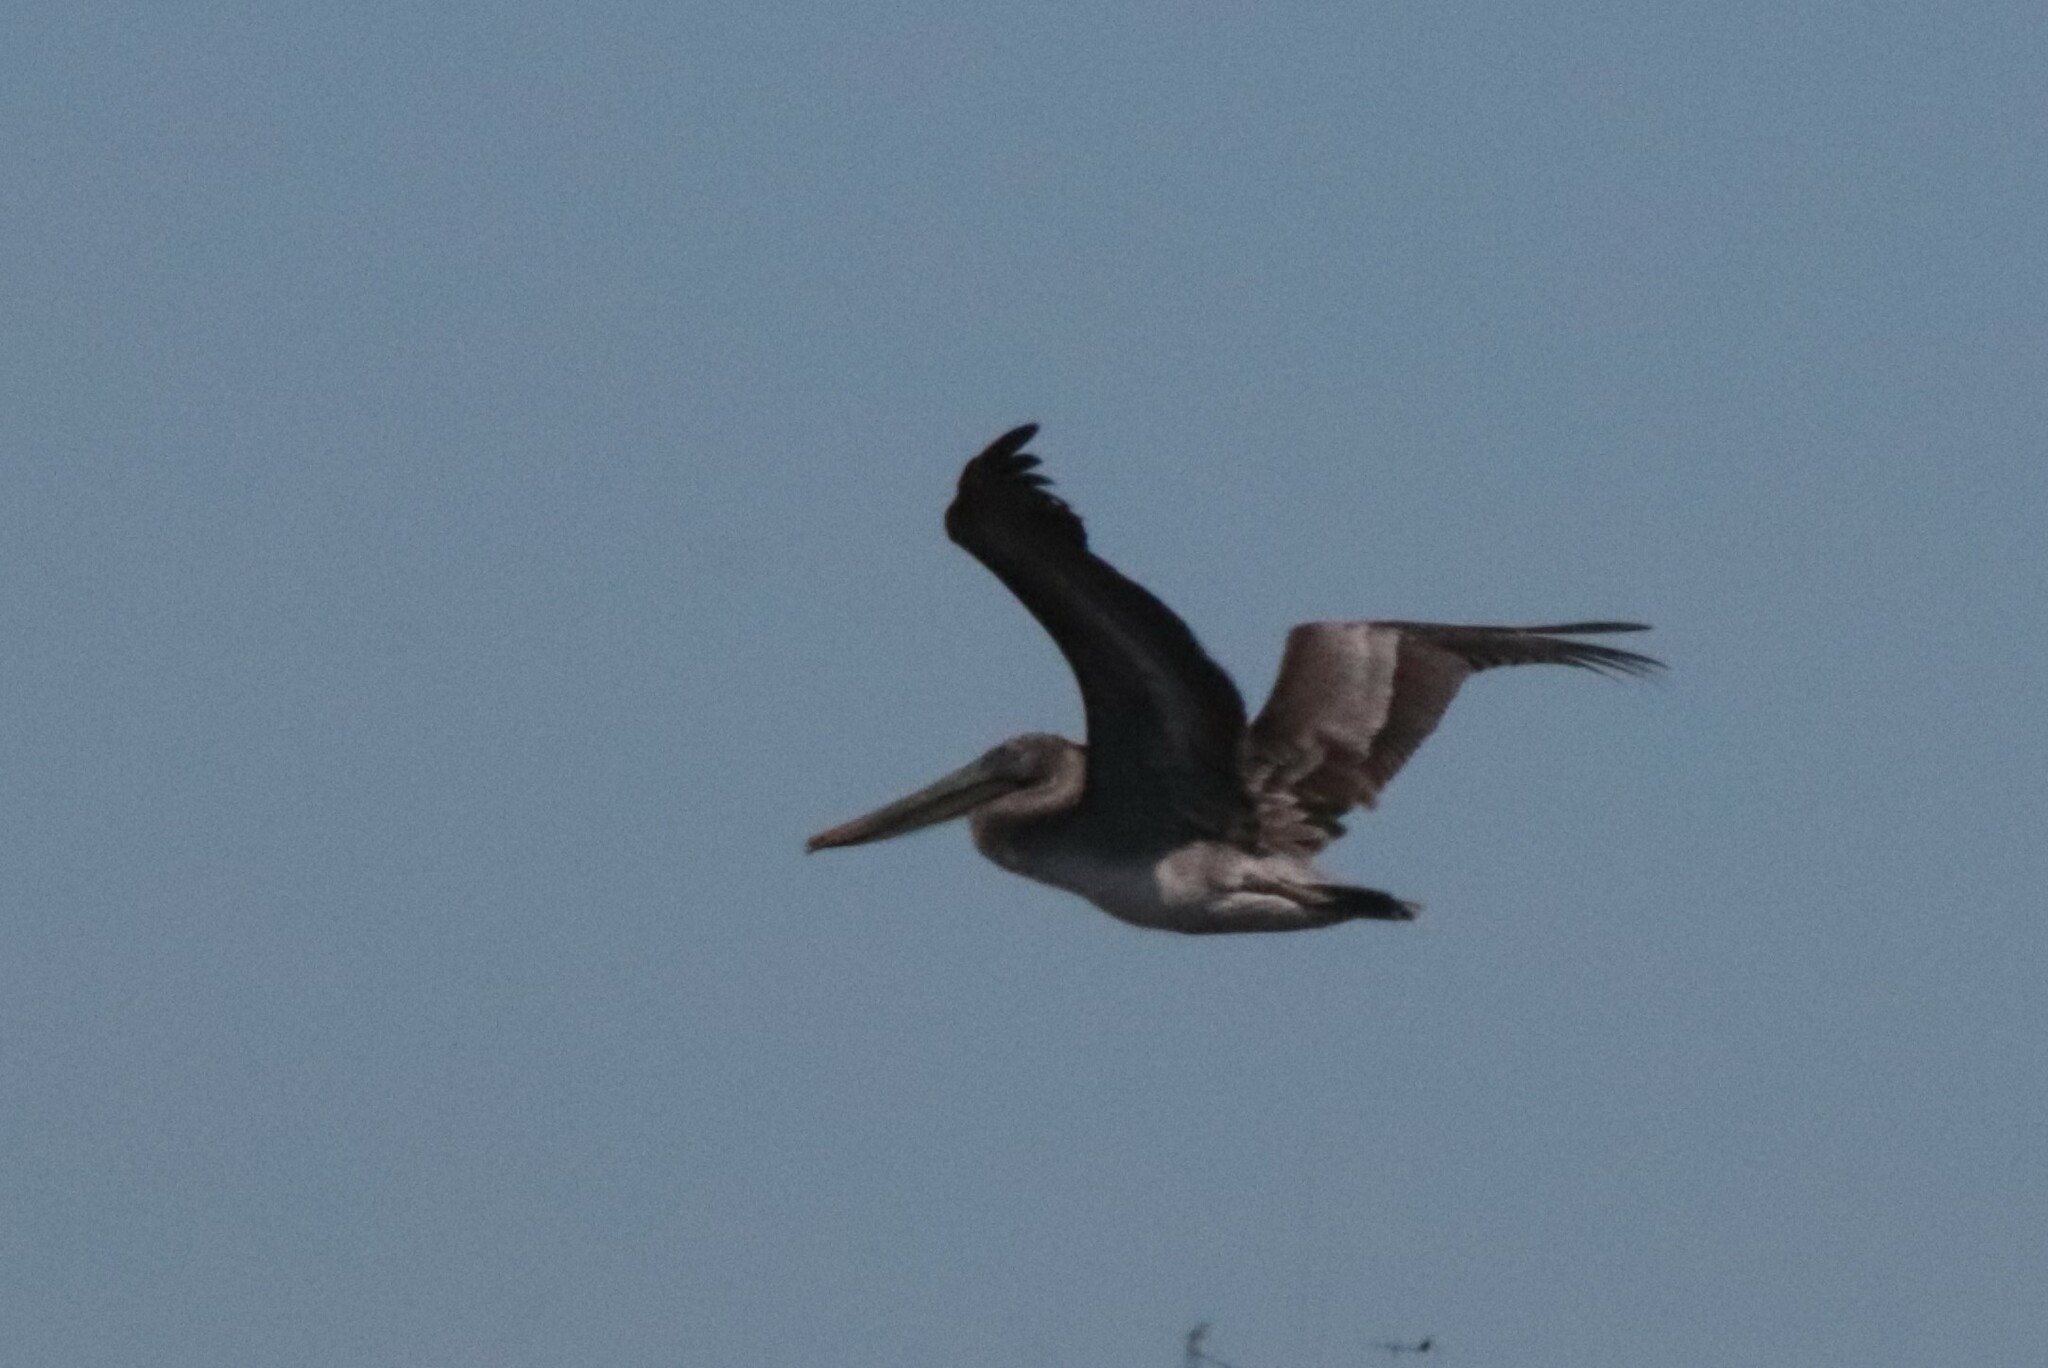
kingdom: Animalia
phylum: Chordata
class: Aves
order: Pelecaniformes
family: Pelecanidae
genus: Pelecanus
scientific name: Pelecanus occidentalis
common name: Brown pelican
